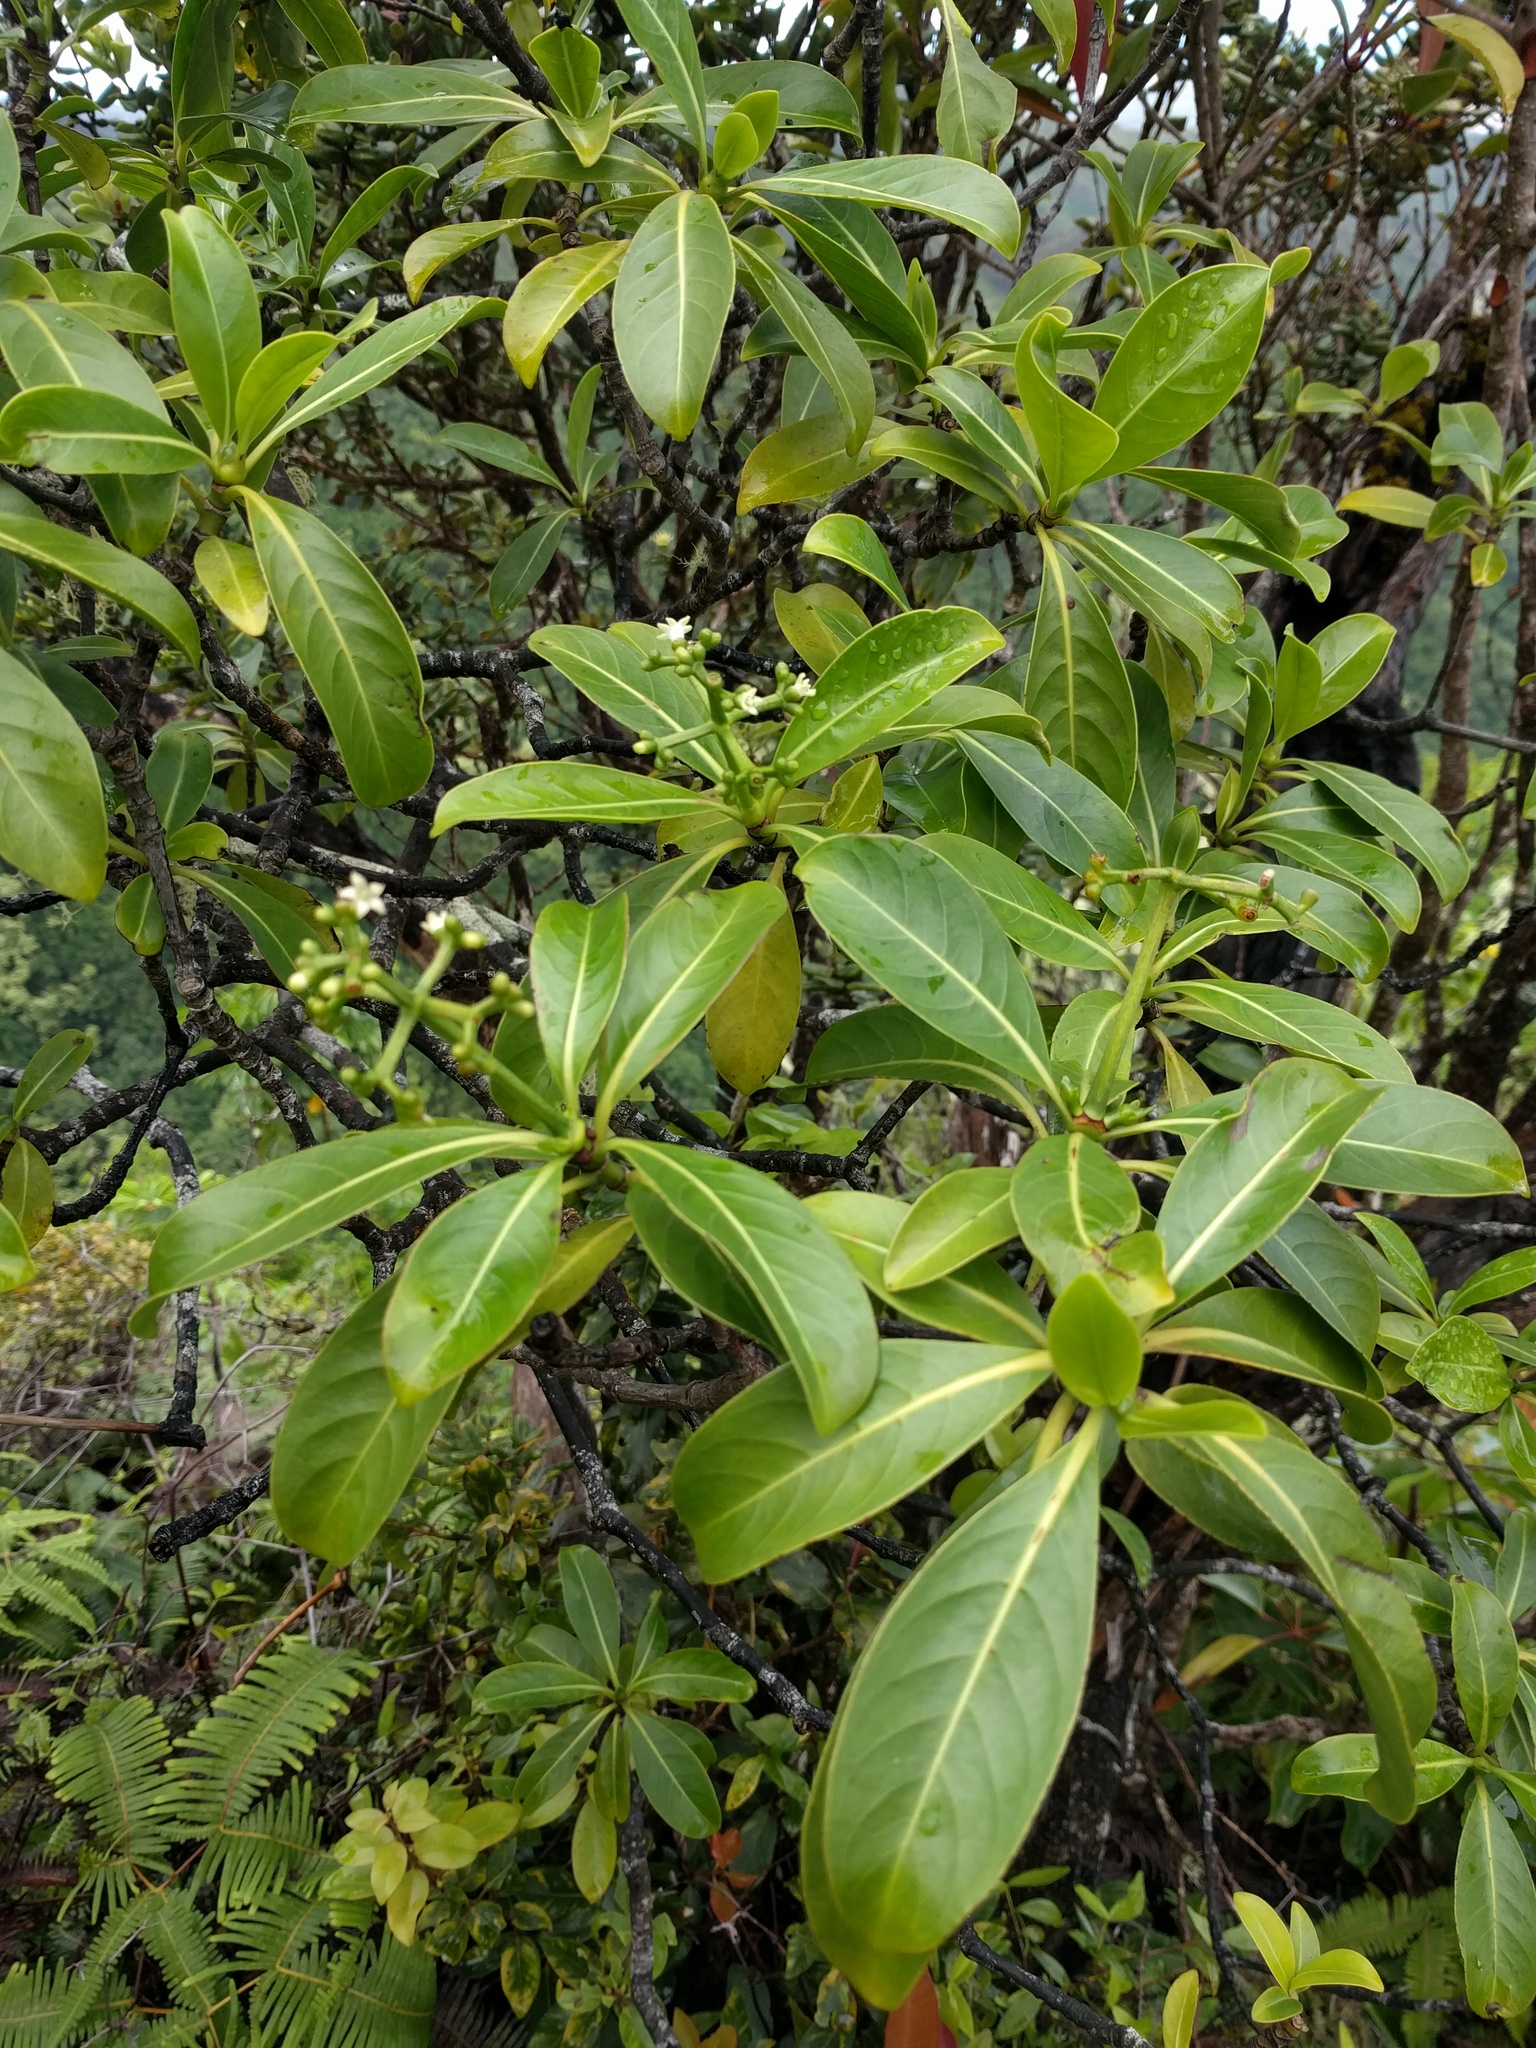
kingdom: Plantae
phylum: Tracheophyta
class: Magnoliopsida
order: Gentianales
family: Rubiaceae
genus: Psychotria
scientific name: Psychotria mariniana
